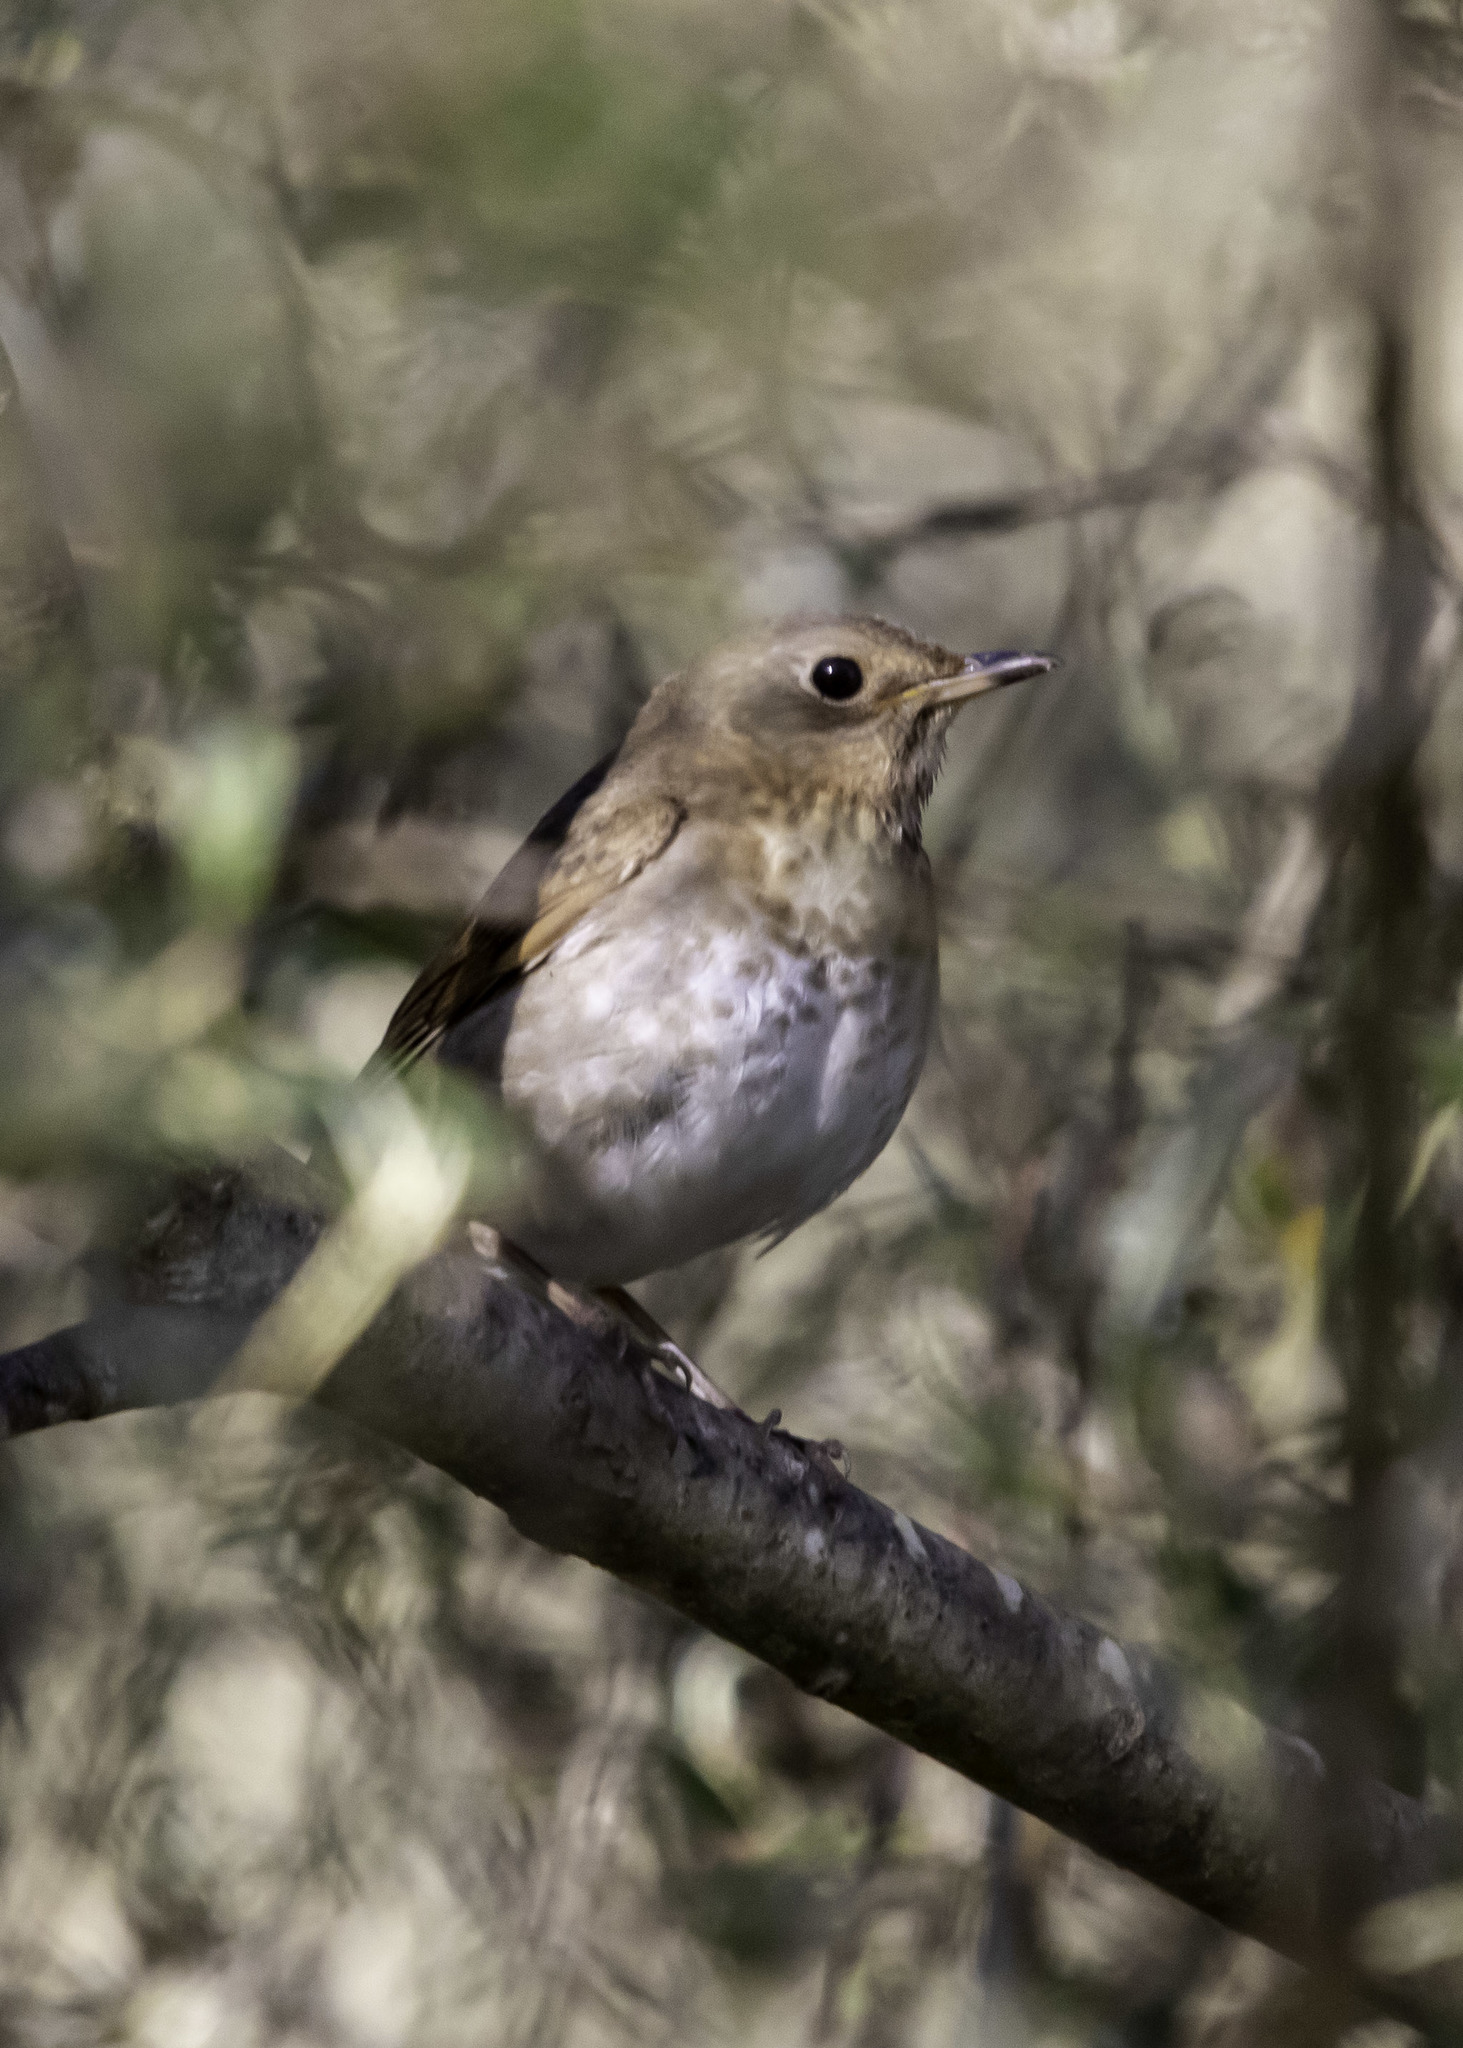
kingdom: Animalia
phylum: Chordata
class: Aves
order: Passeriformes
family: Turdidae
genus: Catharus
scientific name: Catharus ustulatus
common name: Swainson's thrush
